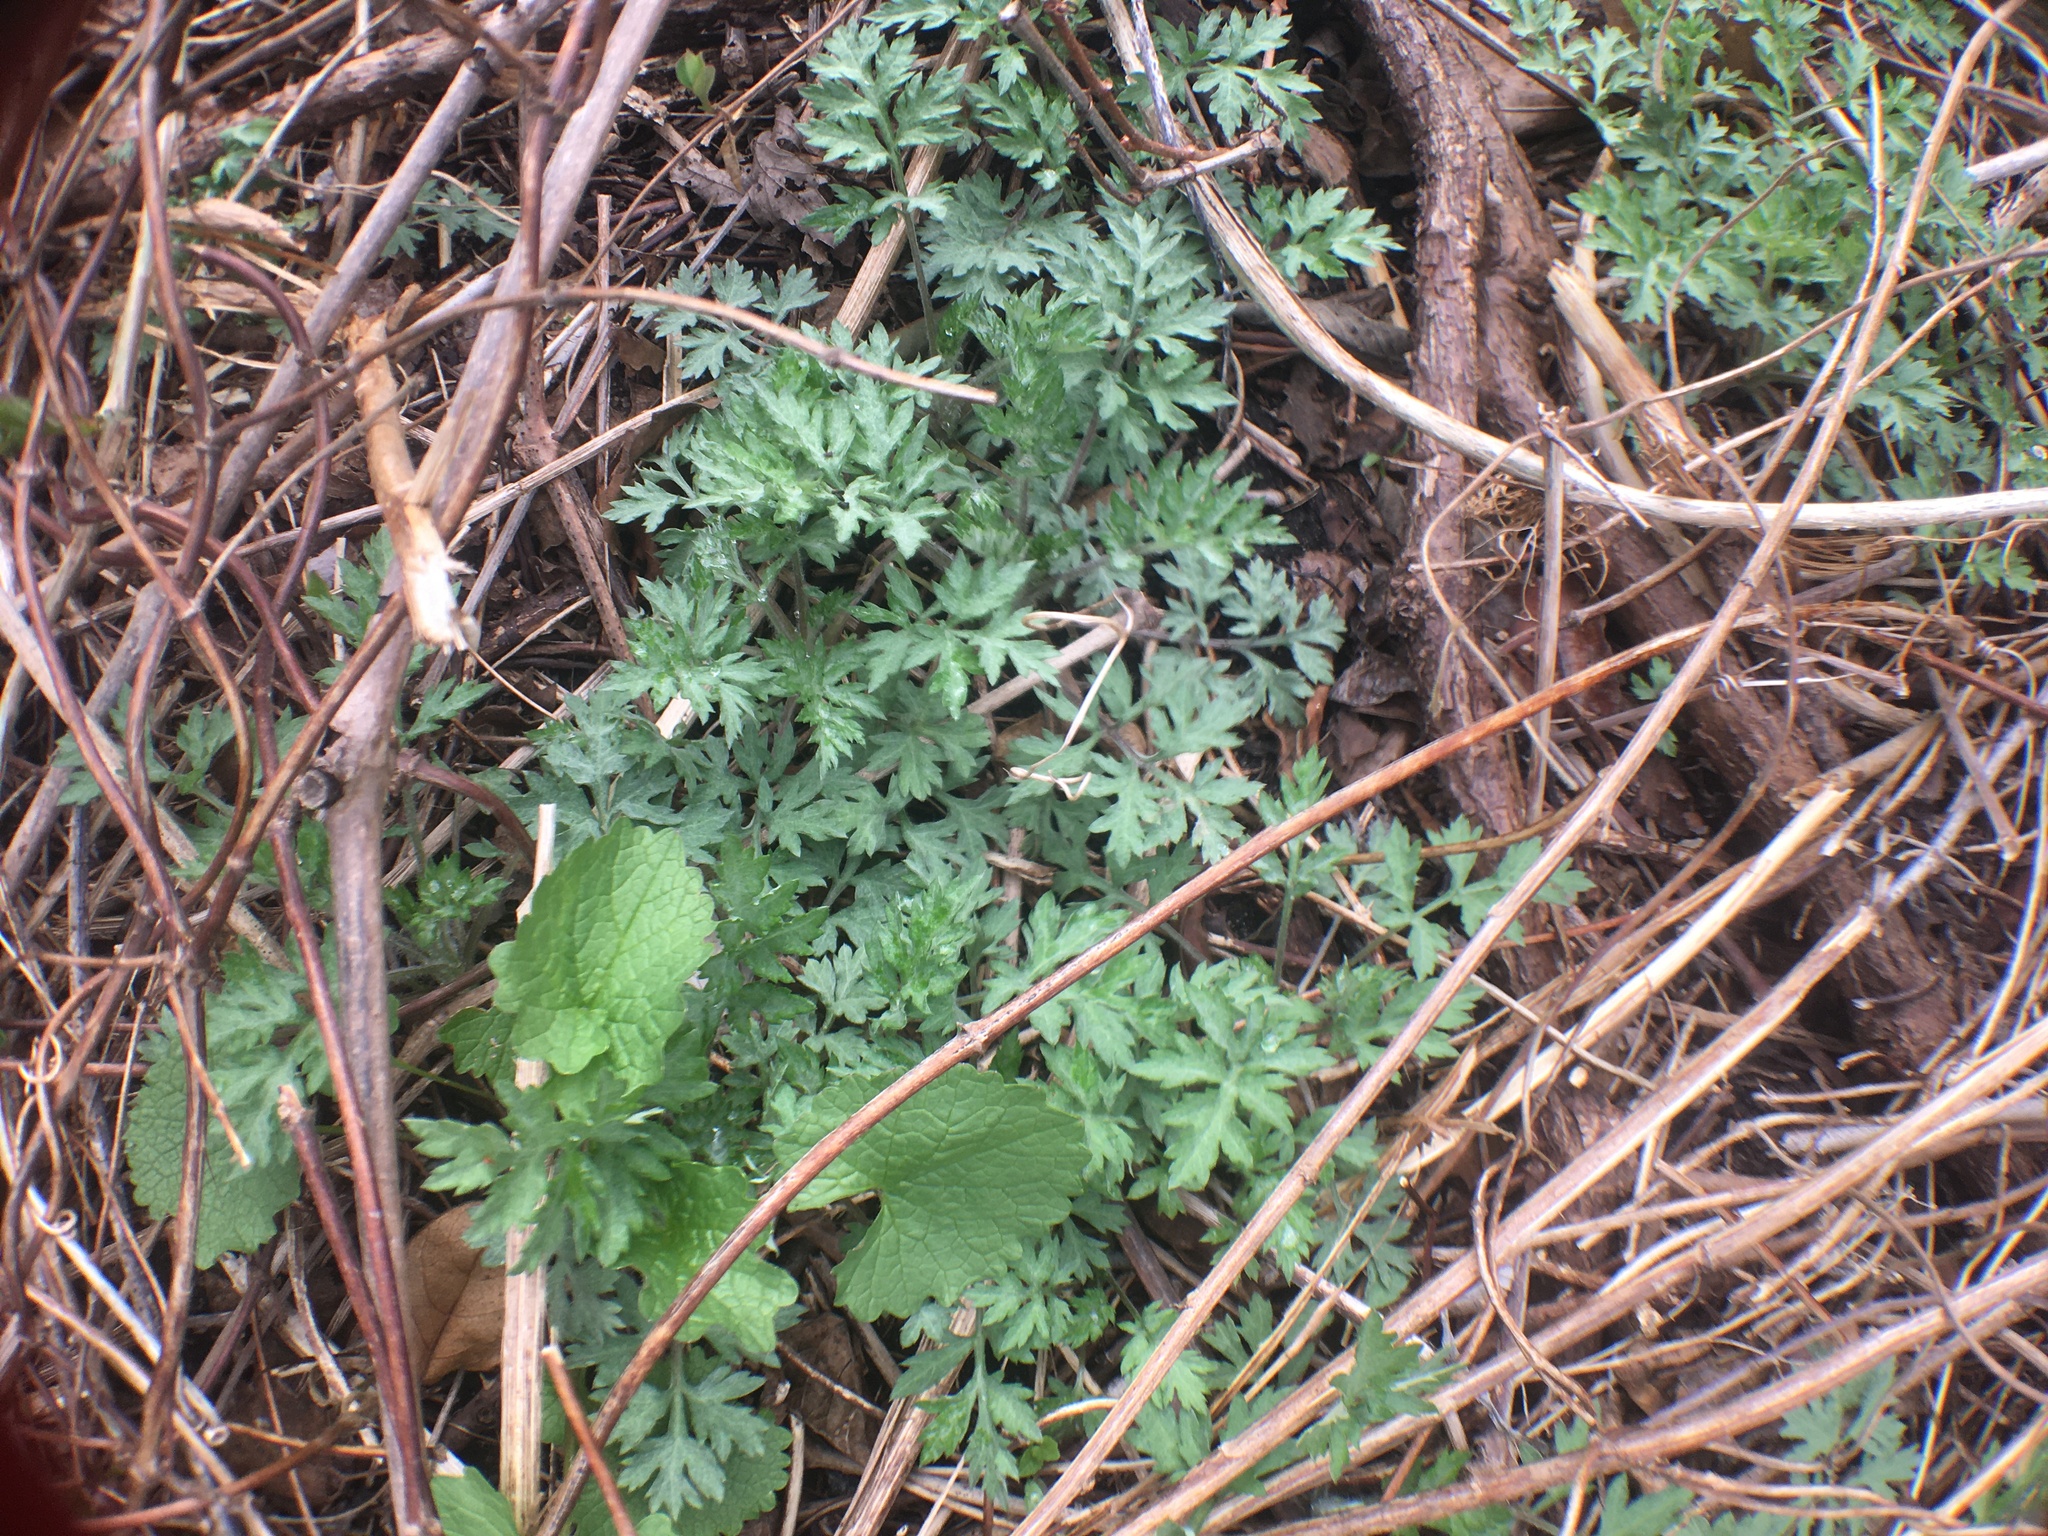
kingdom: Plantae
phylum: Tracheophyta
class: Magnoliopsida
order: Asterales
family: Asteraceae
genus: Artemisia
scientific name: Artemisia vulgaris
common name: Mugwort
